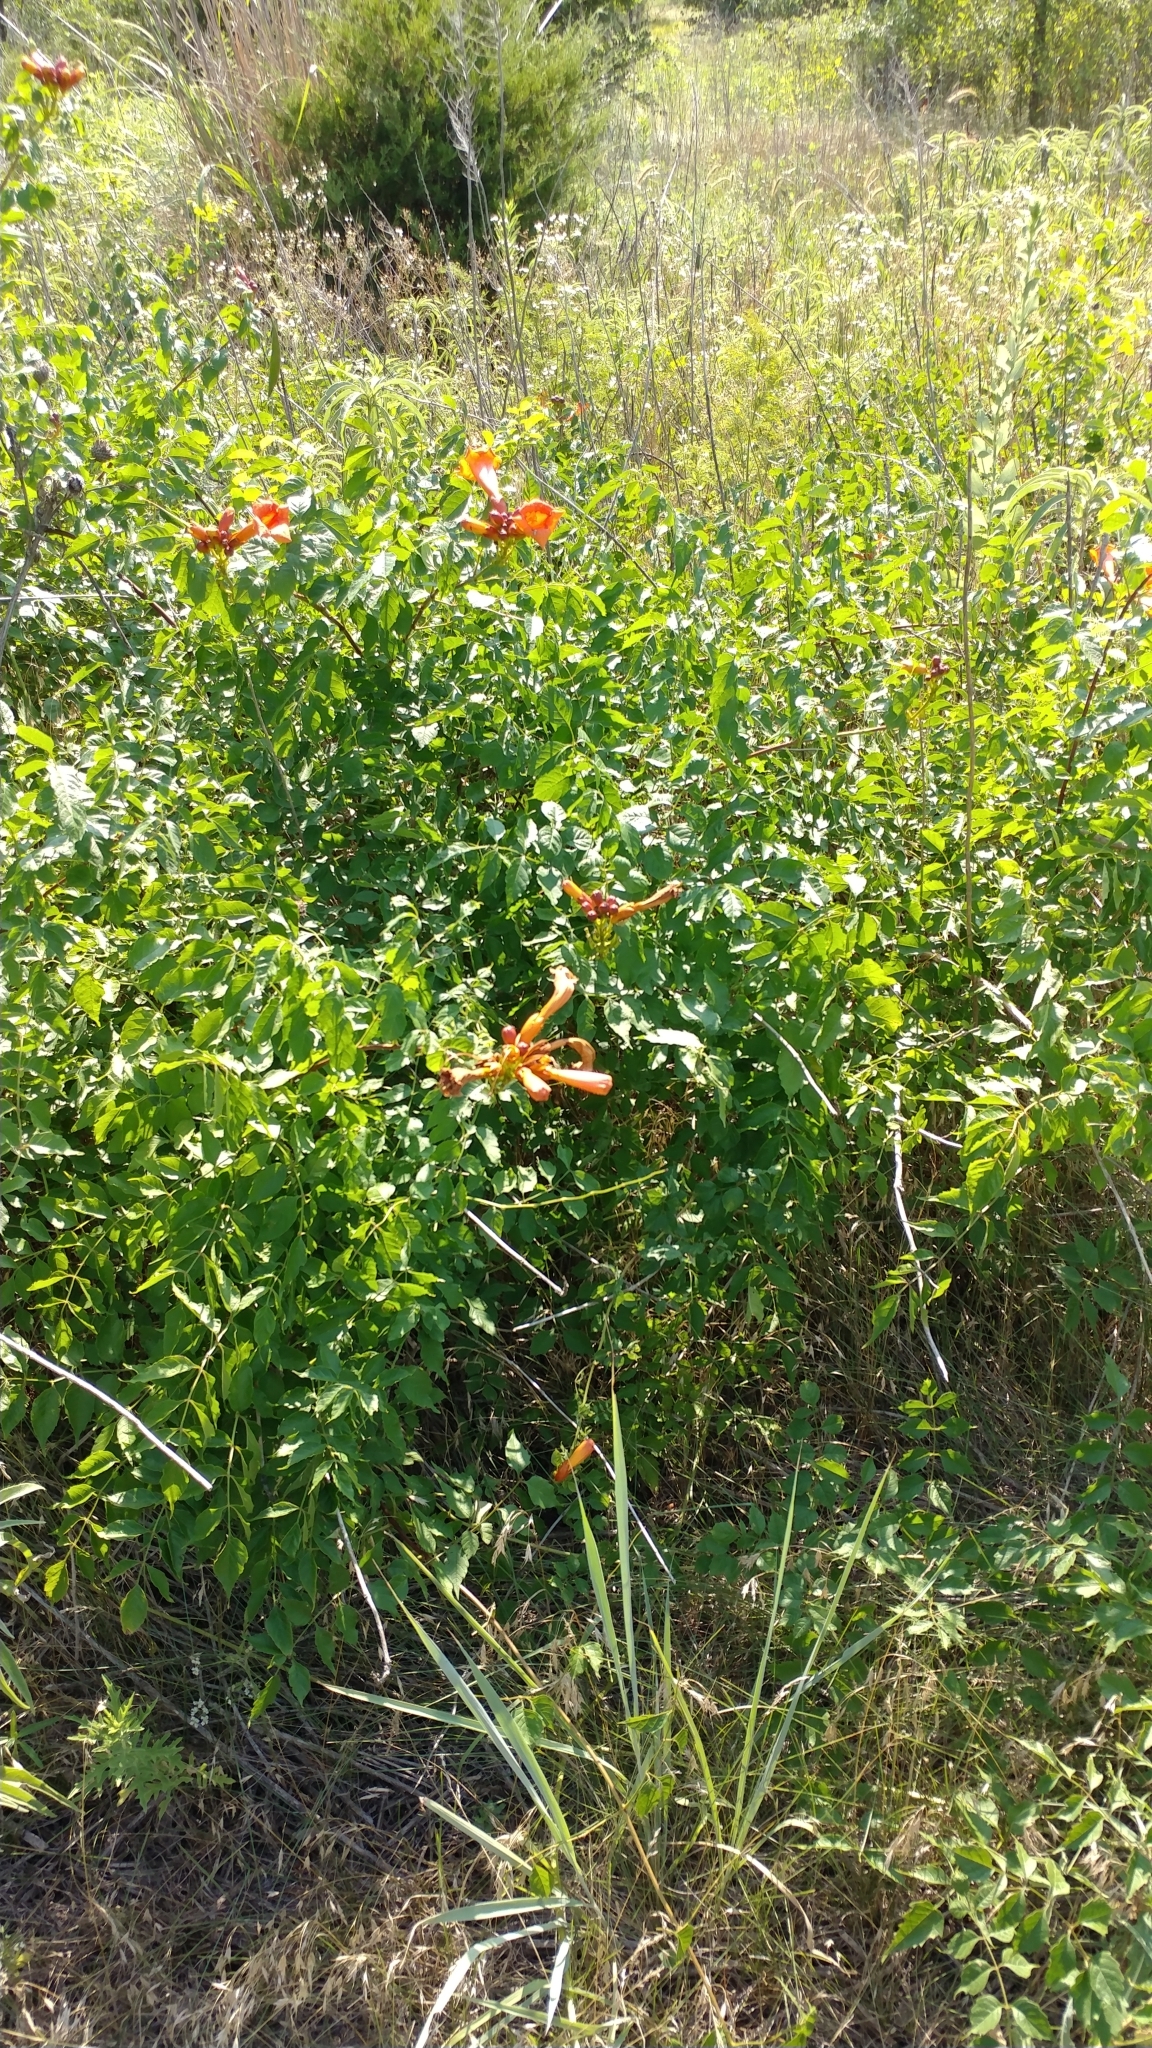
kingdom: Plantae
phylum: Tracheophyta
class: Magnoliopsida
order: Lamiales
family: Bignoniaceae
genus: Campsis
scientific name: Campsis radicans
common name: Trumpet-creeper
